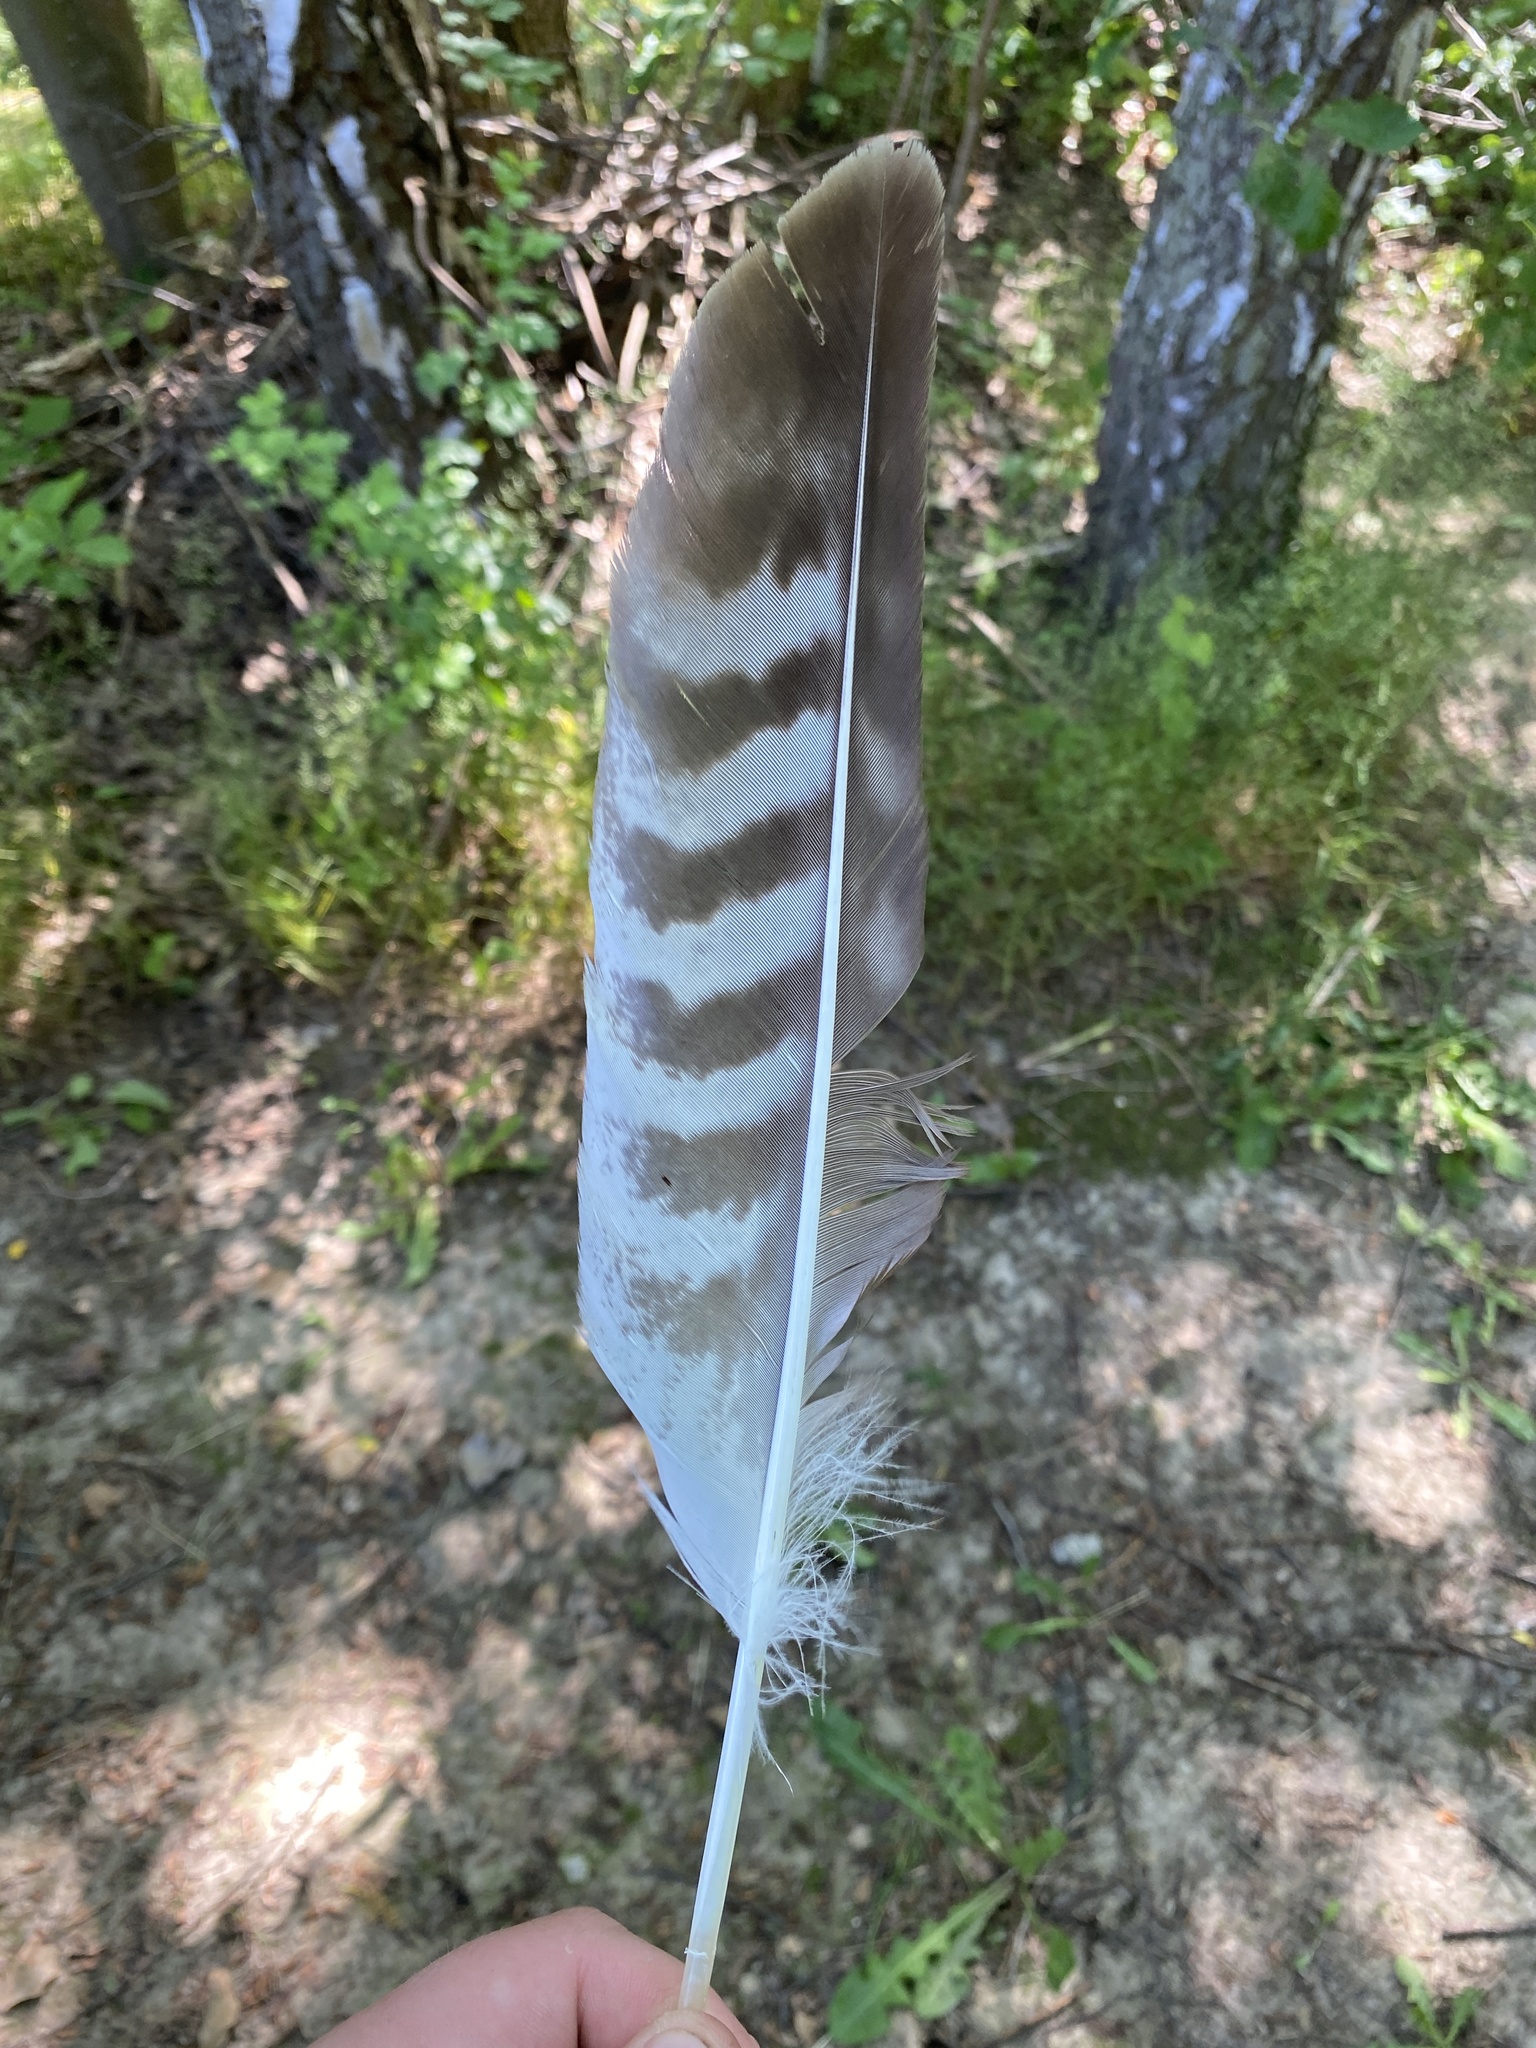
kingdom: Animalia
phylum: Chordata
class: Aves
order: Accipitriformes
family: Accipitridae
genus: Buteo
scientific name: Buteo buteo
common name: Common buzzard
